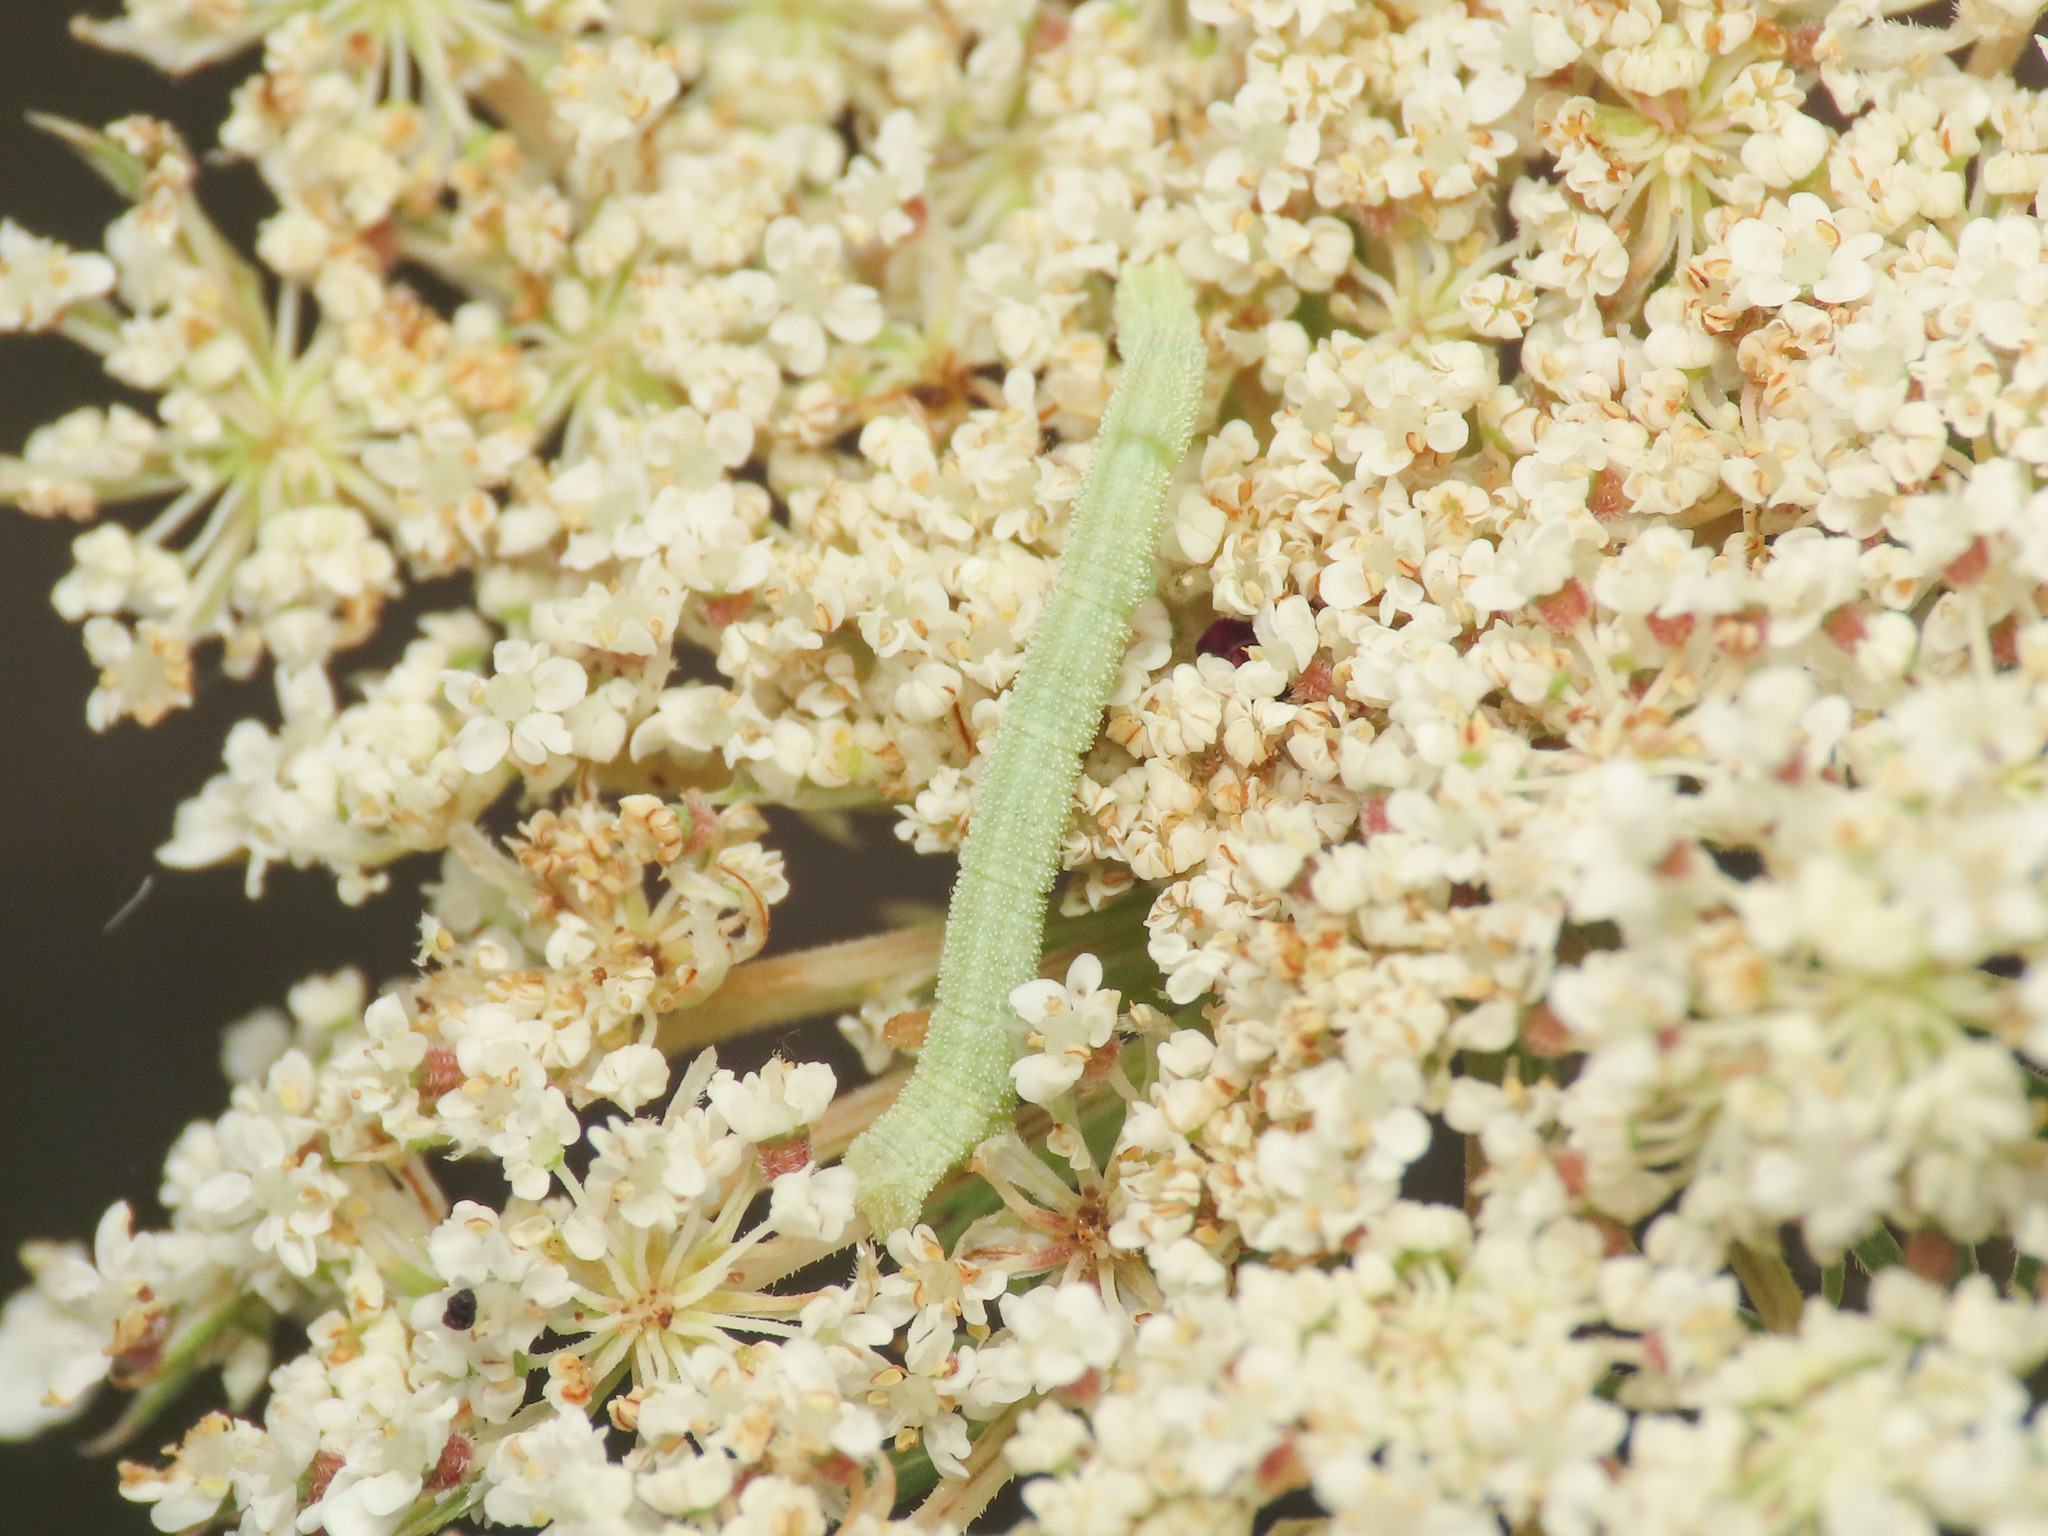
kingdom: Animalia
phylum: Arthropoda
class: Insecta
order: Lepidoptera
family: Geometridae
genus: Chlorissa
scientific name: Chlorissa etruscaria
